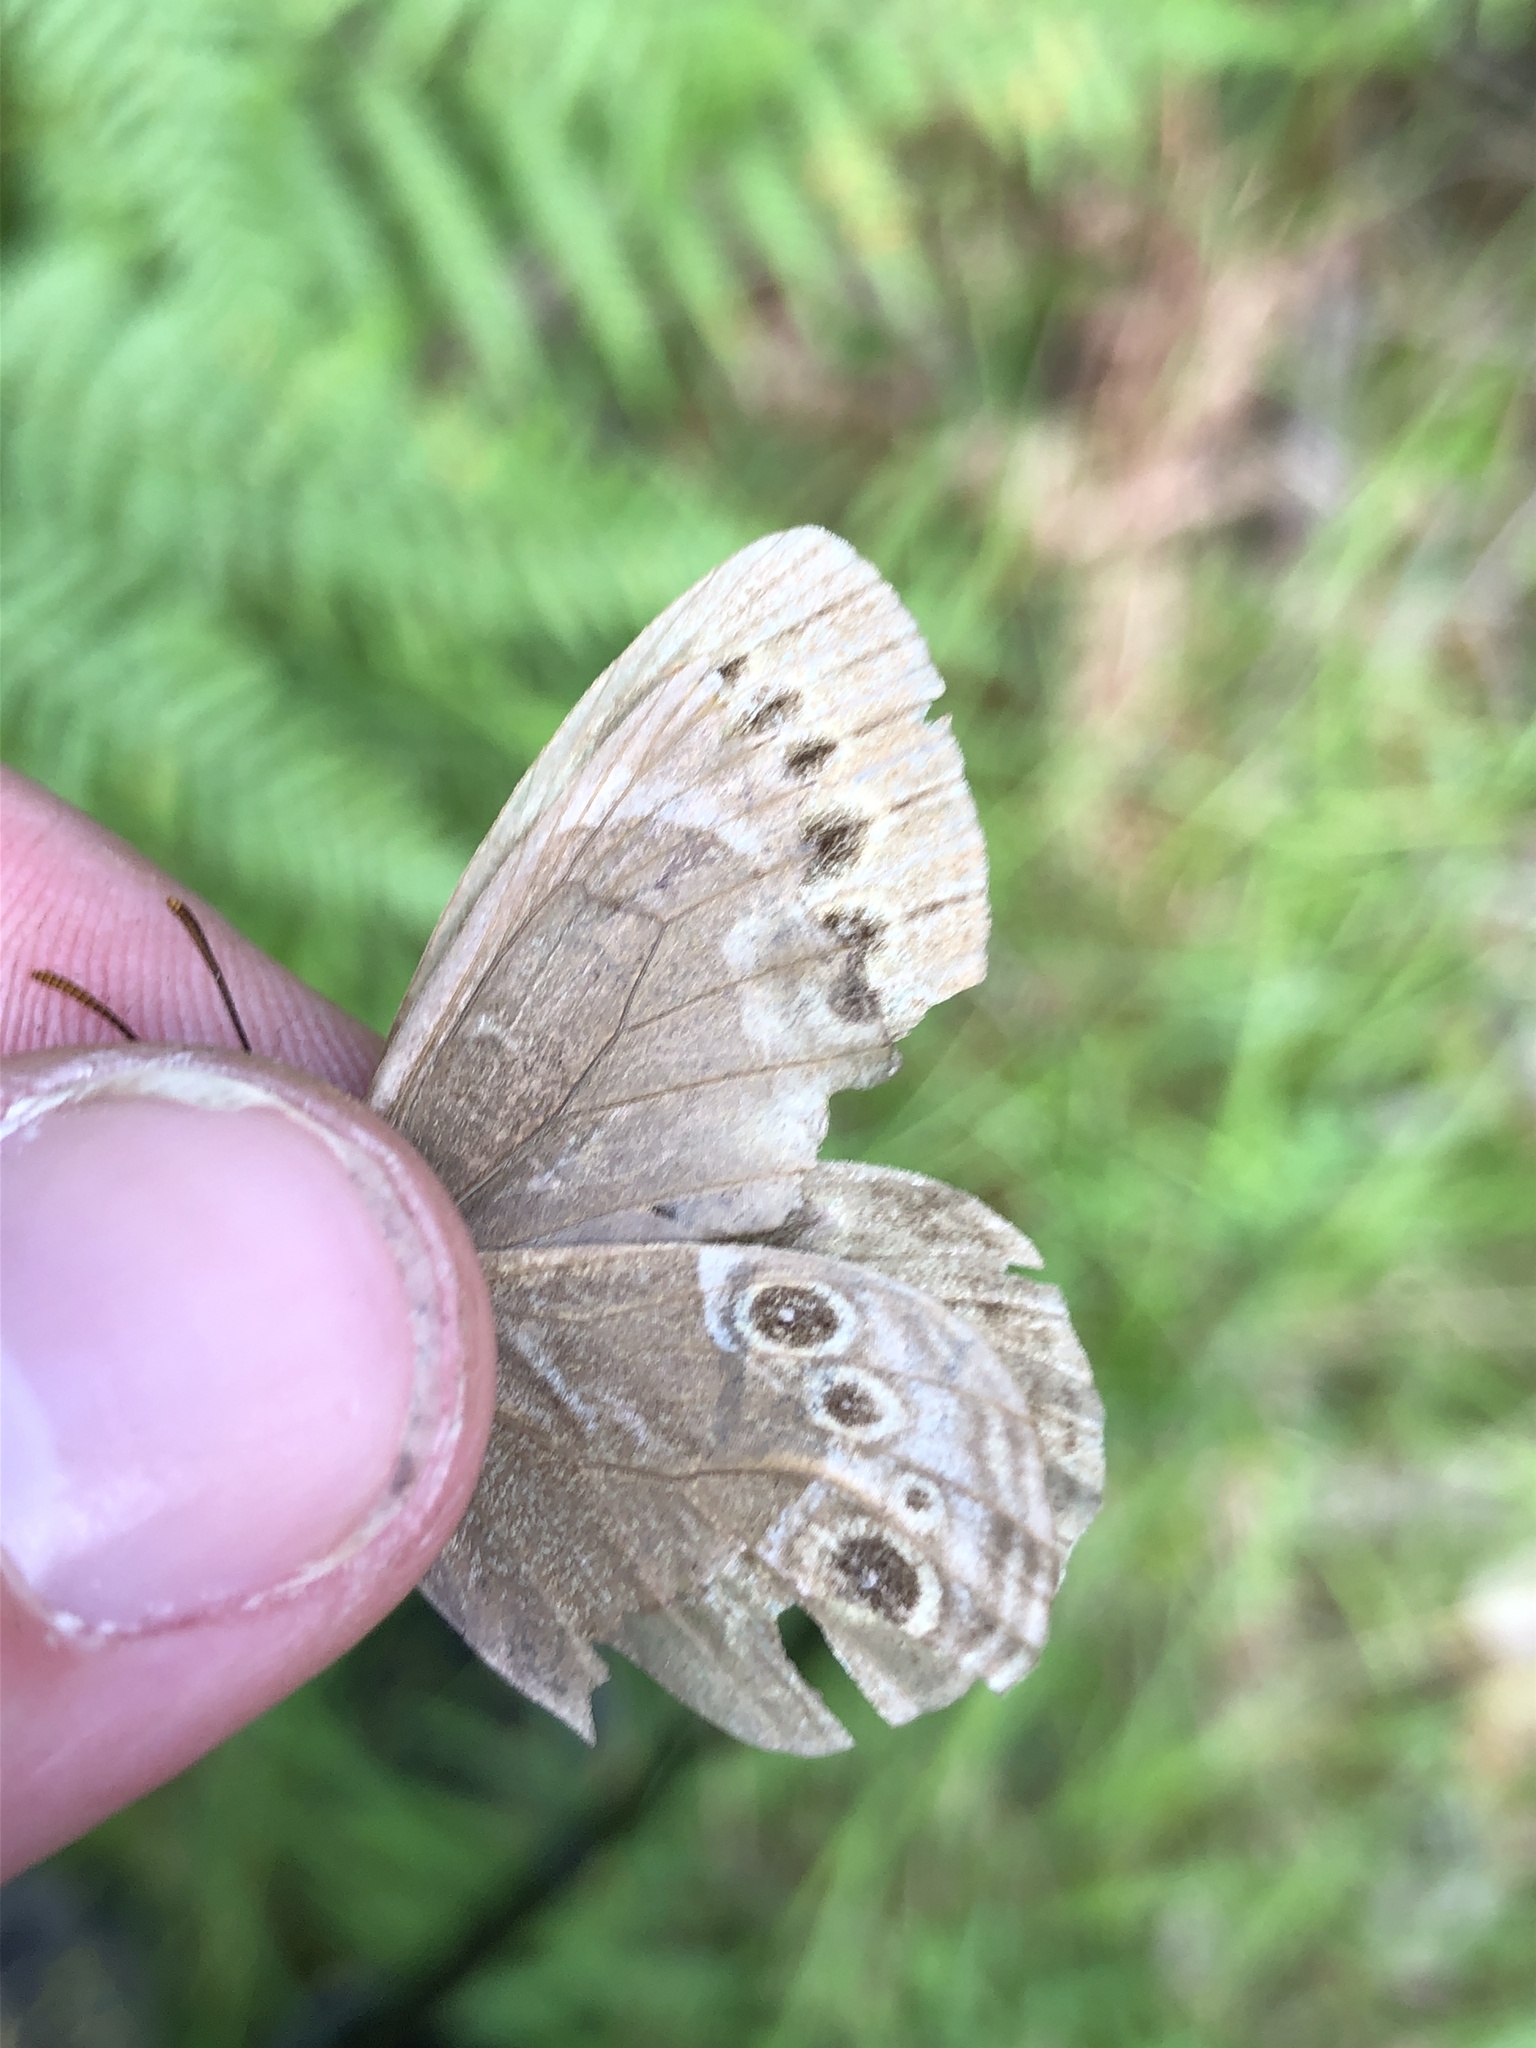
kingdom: Animalia
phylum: Arthropoda
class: Insecta
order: Lepidoptera
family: Nymphalidae
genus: Pararge
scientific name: Pararge Lopinga achine
